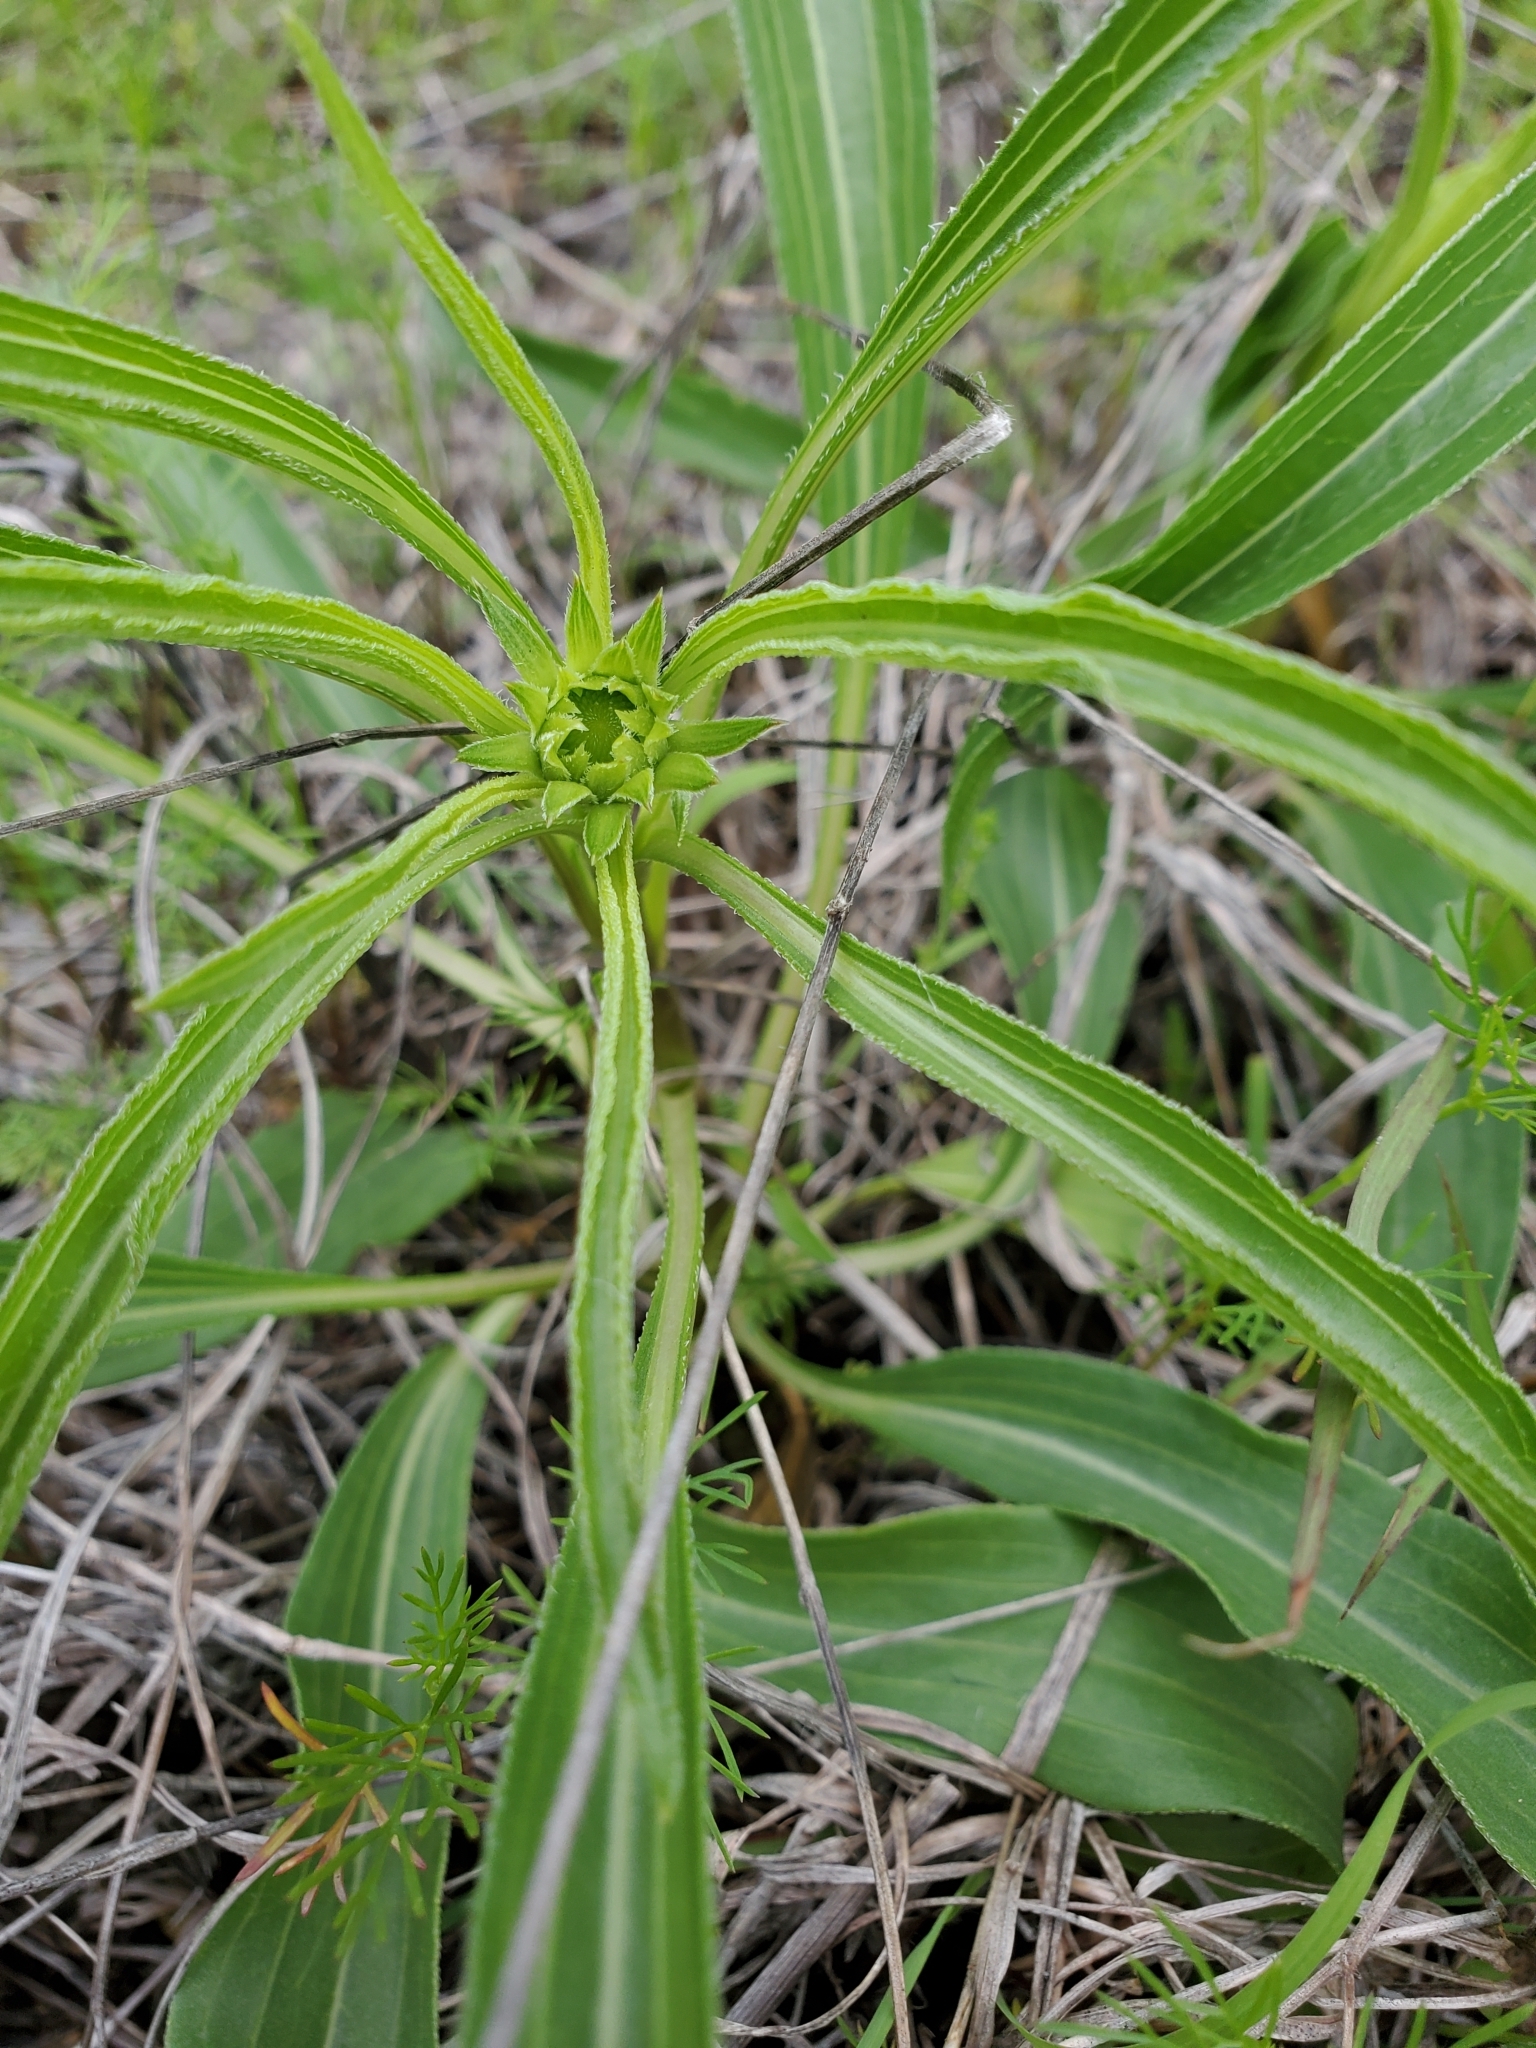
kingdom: Plantae
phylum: Tracheophyta
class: Magnoliopsida
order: Myrtales
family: Onagraceae
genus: Oenothera
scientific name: Oenothera macrocarpa
